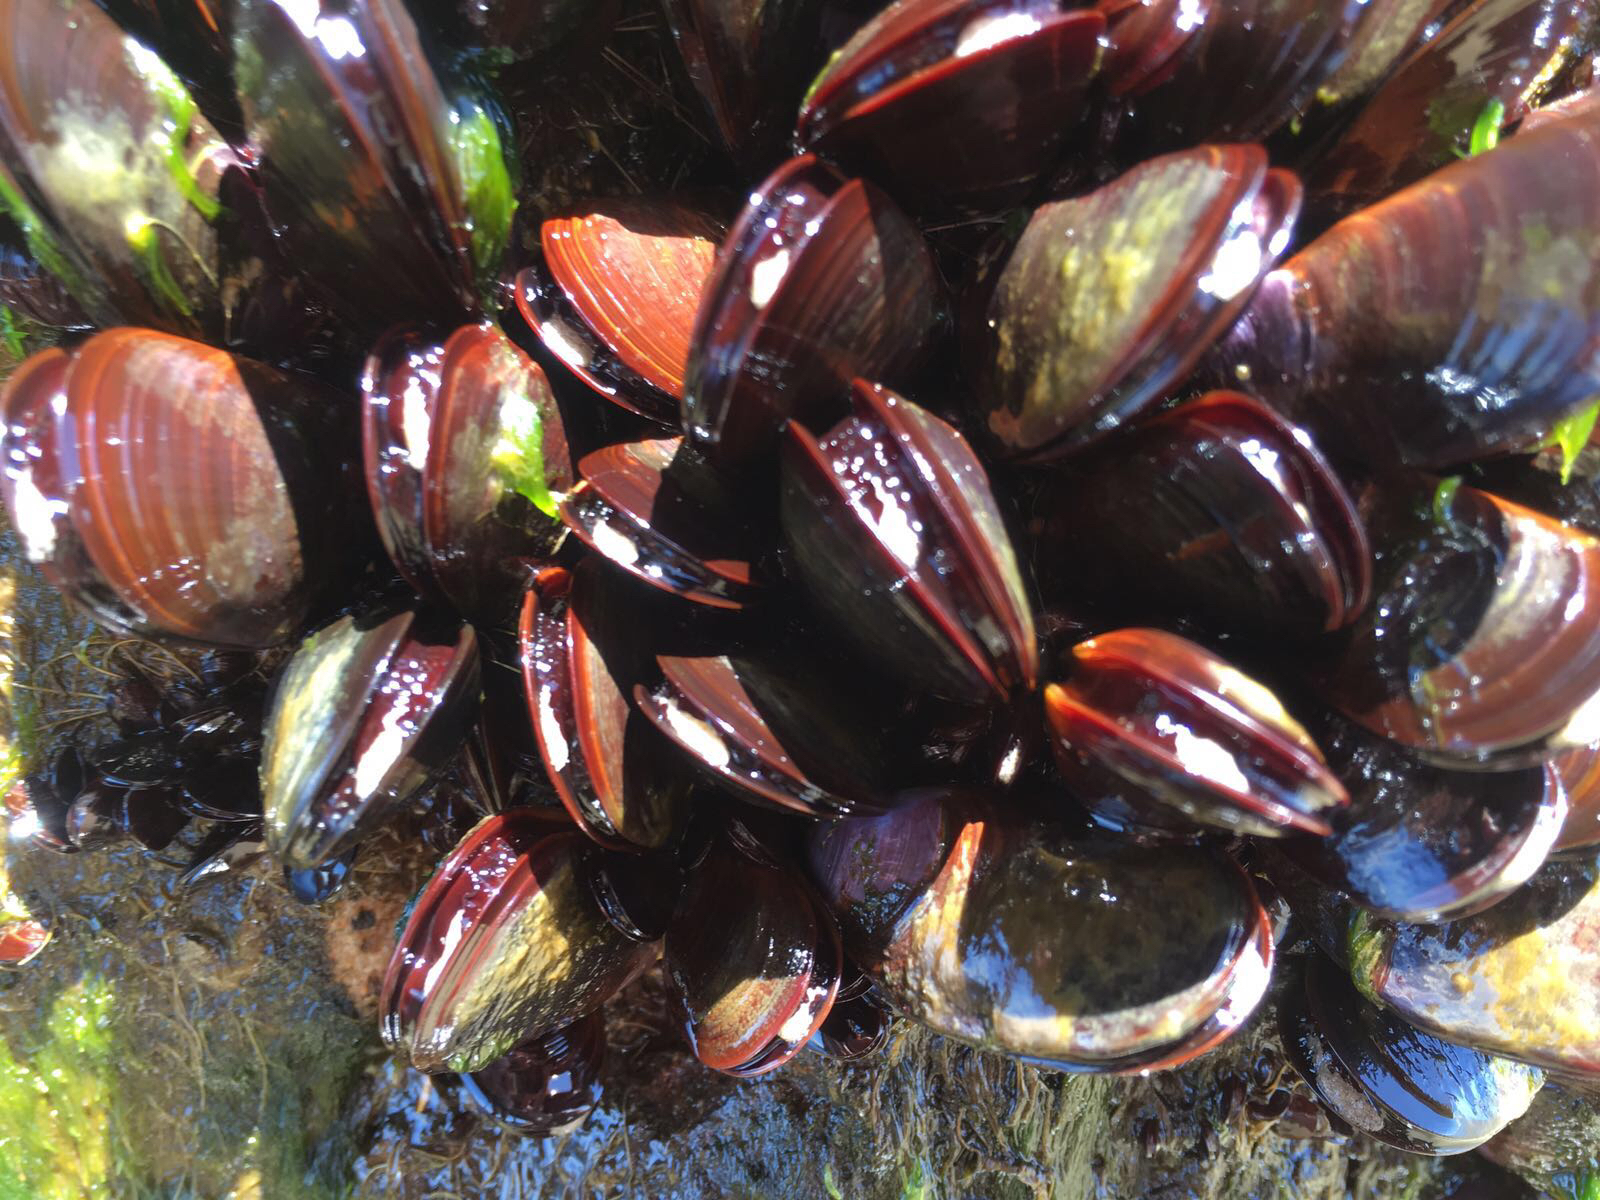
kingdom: Animalia
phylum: Mollusca
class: Bivalvia
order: Mytilida
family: Mytilidae
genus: Perna
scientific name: Perna perna
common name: Mexilhao mussel
